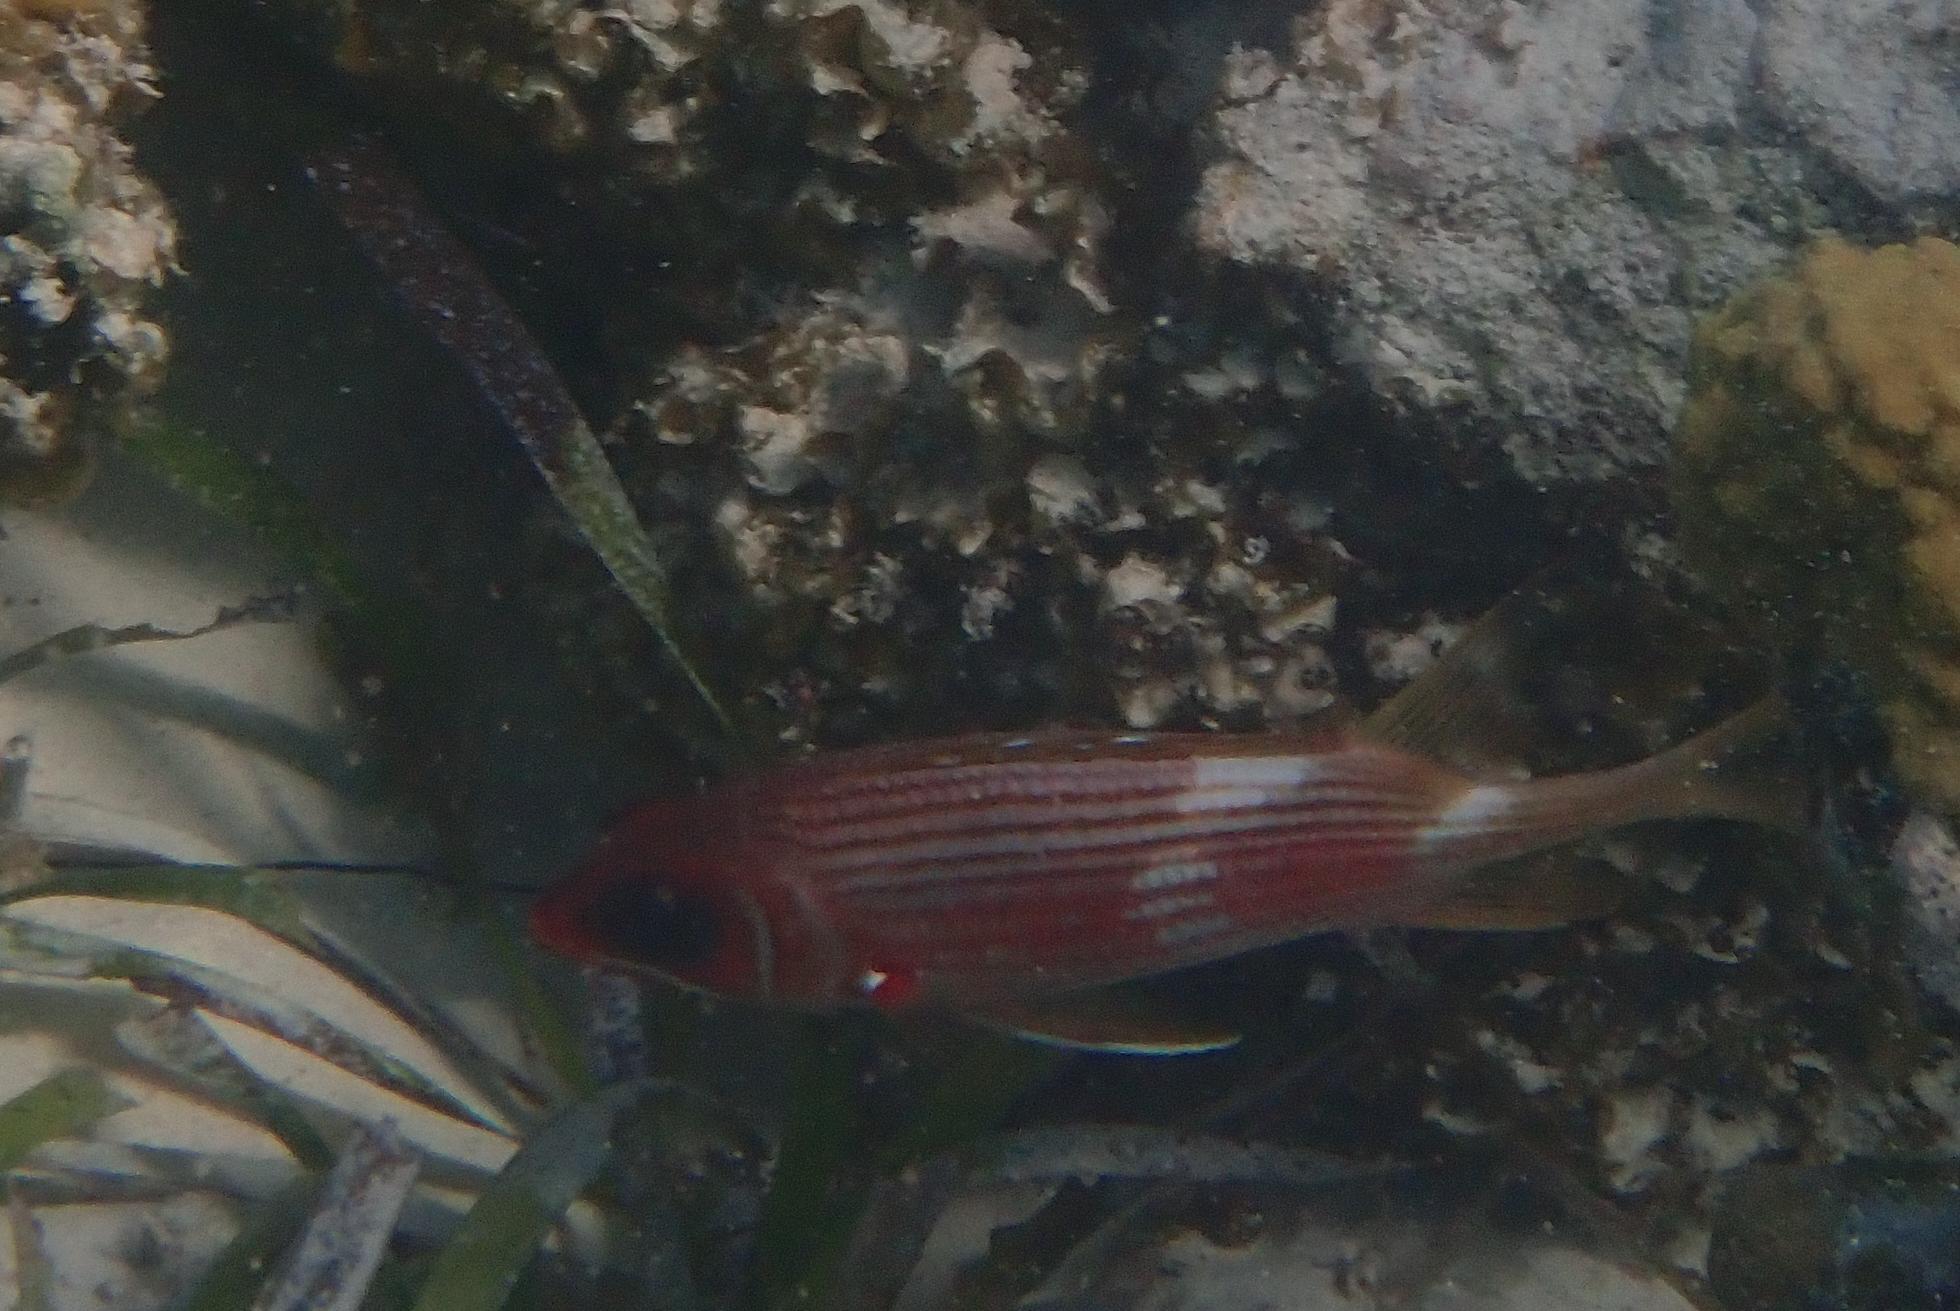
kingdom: Animalia
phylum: Chordata
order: Beryciformes
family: Holocentridae
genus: Holocentrus
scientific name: Holocentrus rufus
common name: Longspine squirrelfish
